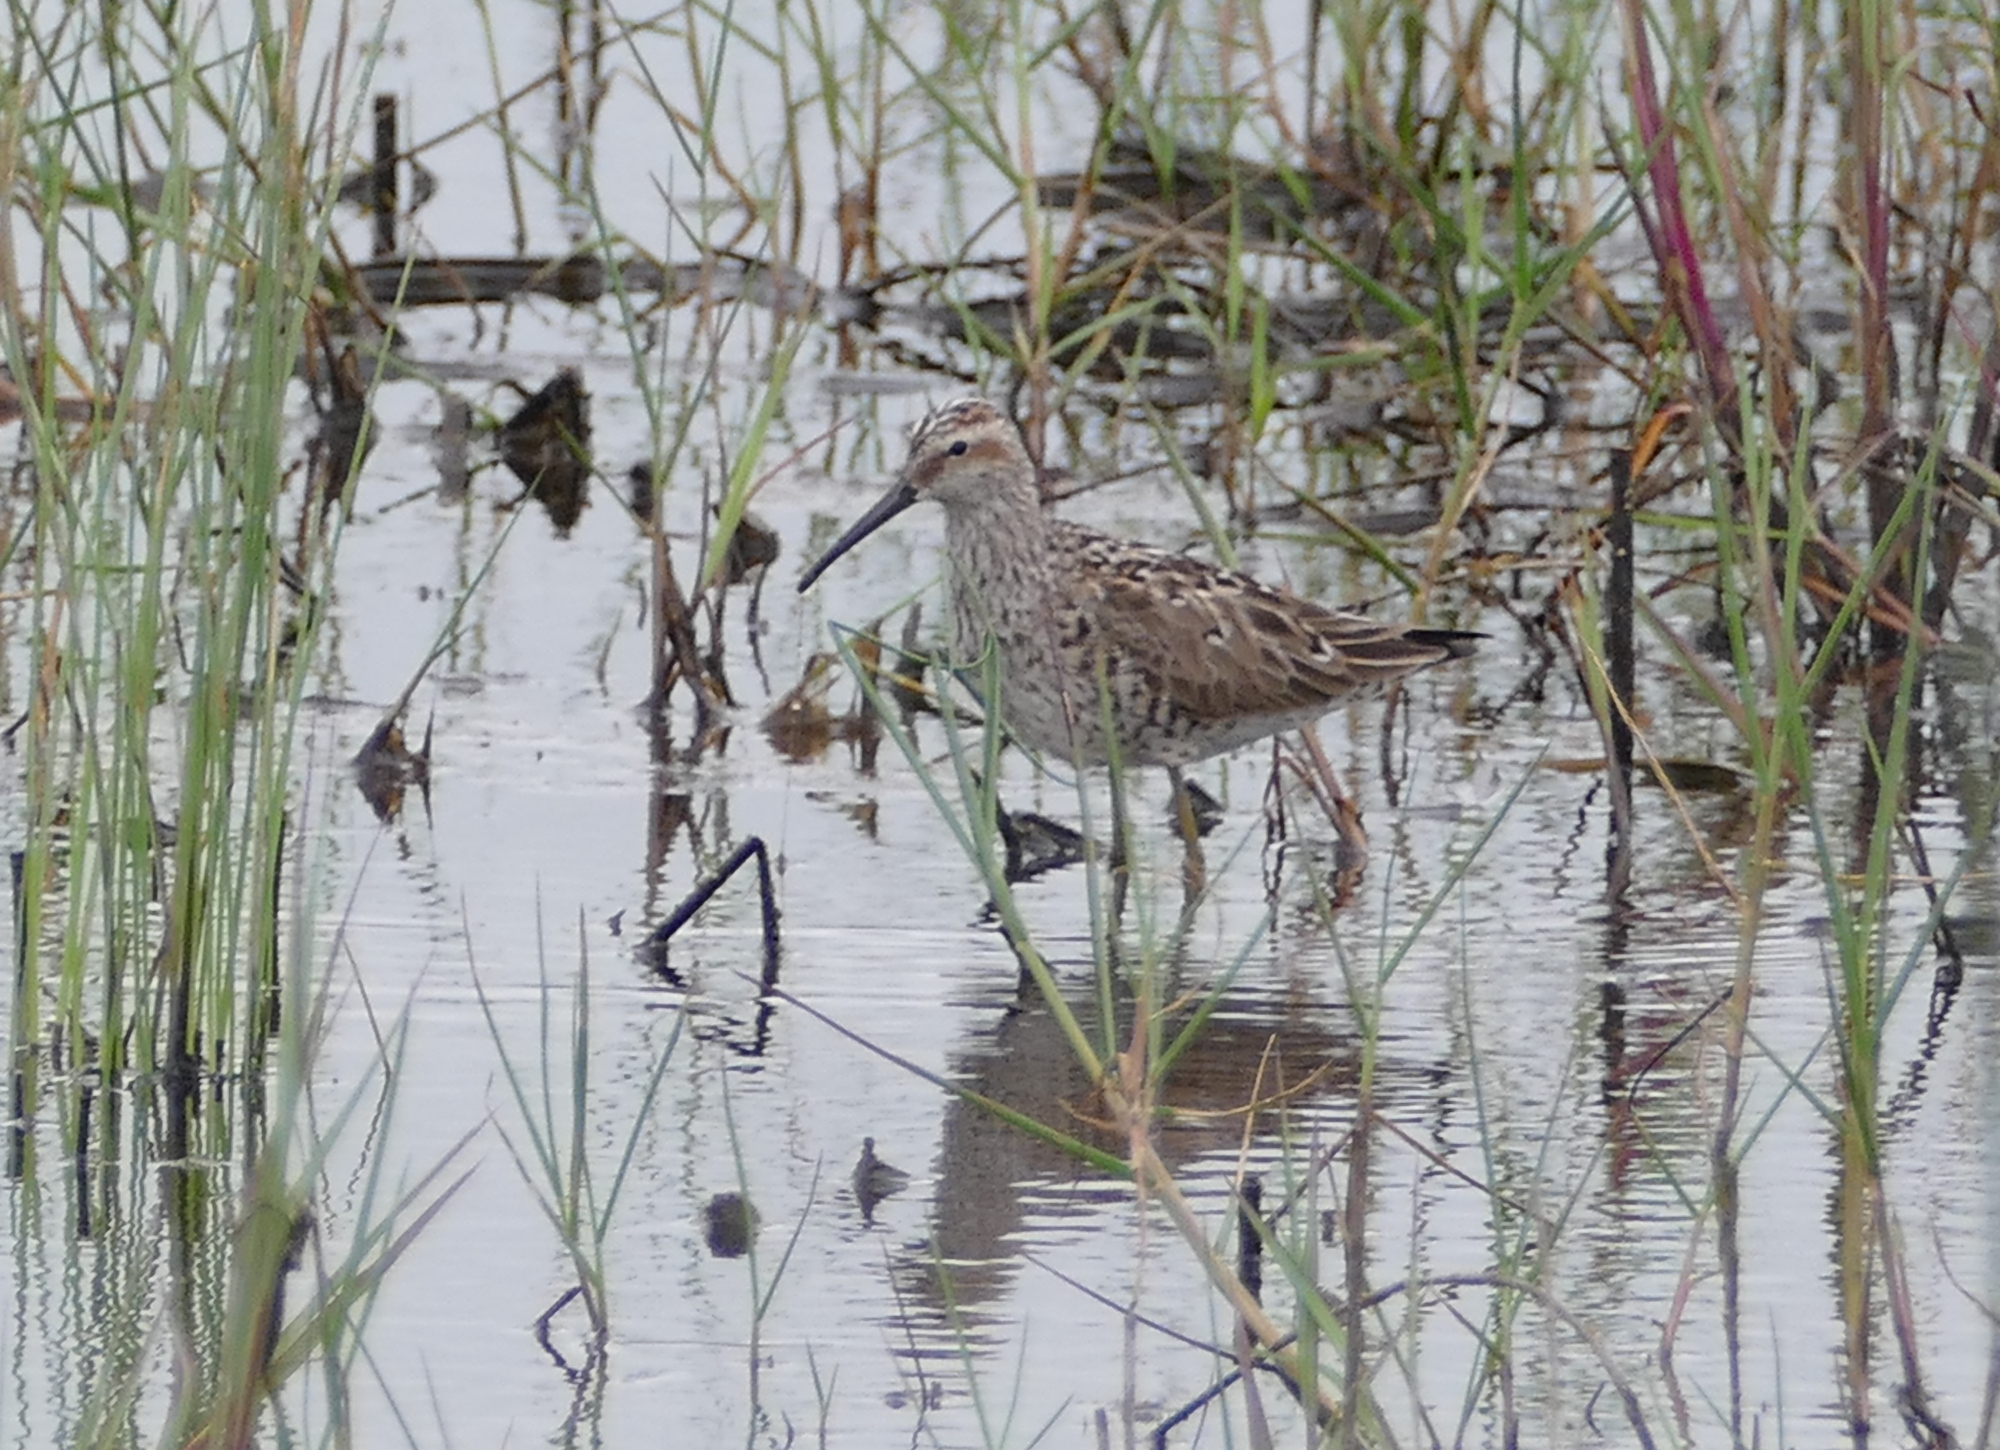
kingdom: Animalia
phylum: Chordata
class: Aves
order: Charadriiformes
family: Scolopacidae
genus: Calidris
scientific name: Calidris himantopus
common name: Stilt sandpiper
